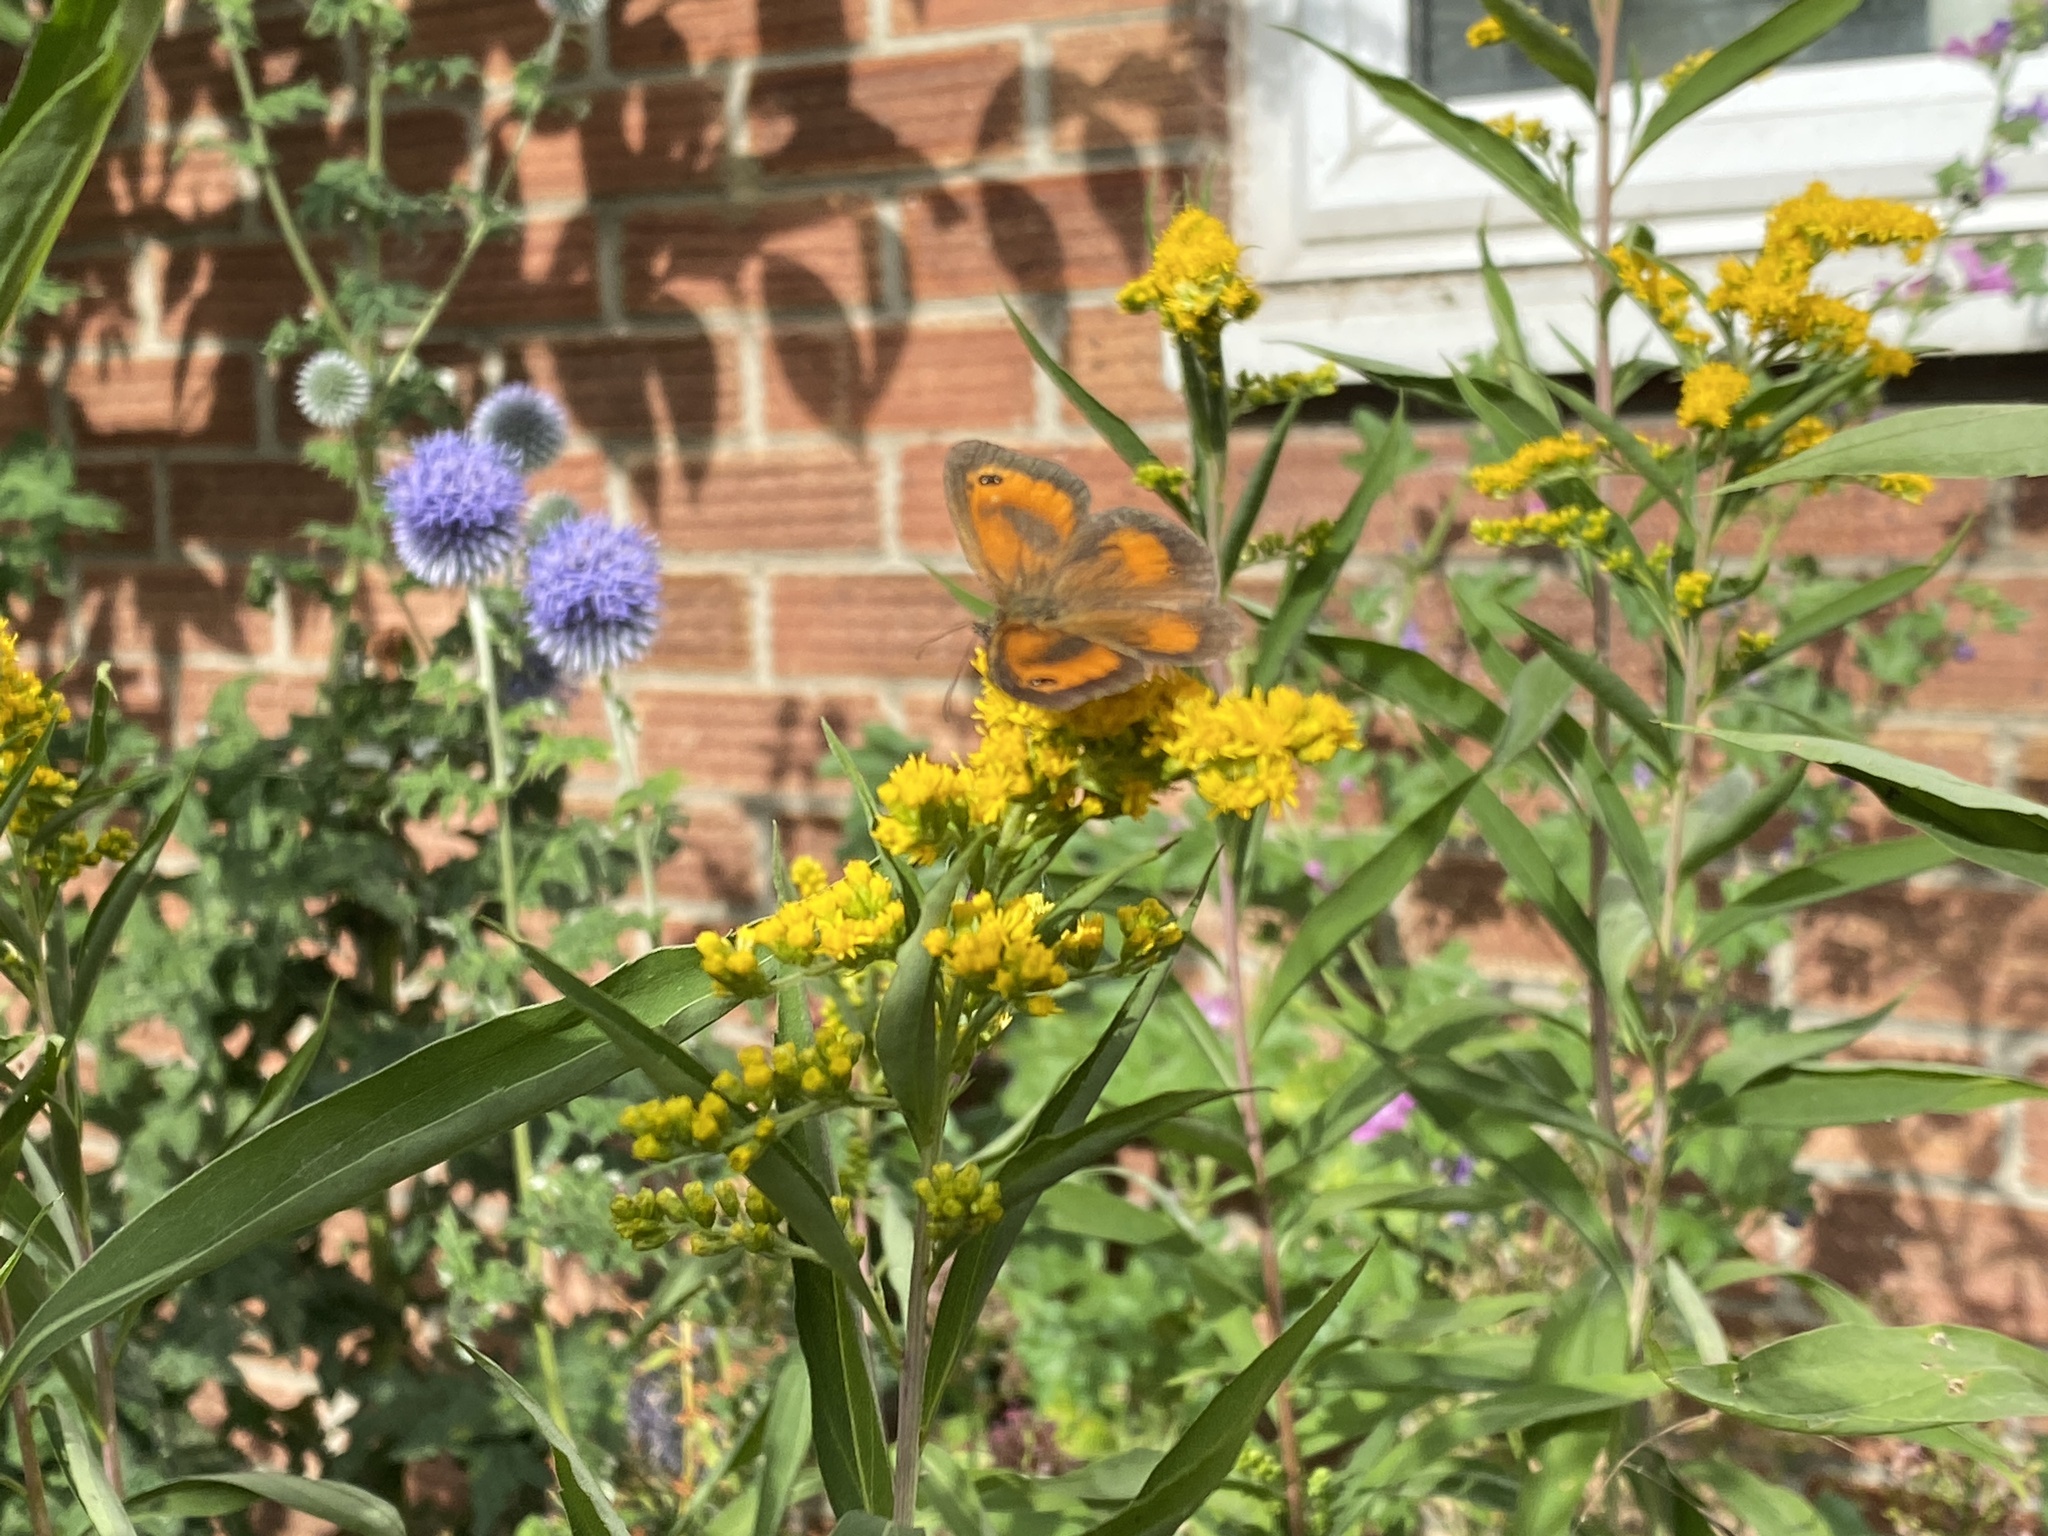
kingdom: Animalia
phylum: Arthropoda
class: Insecta
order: Lepidoptera
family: Nymphalidae
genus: Pyronia
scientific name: Pyronia tithonus
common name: Gatekeeper
